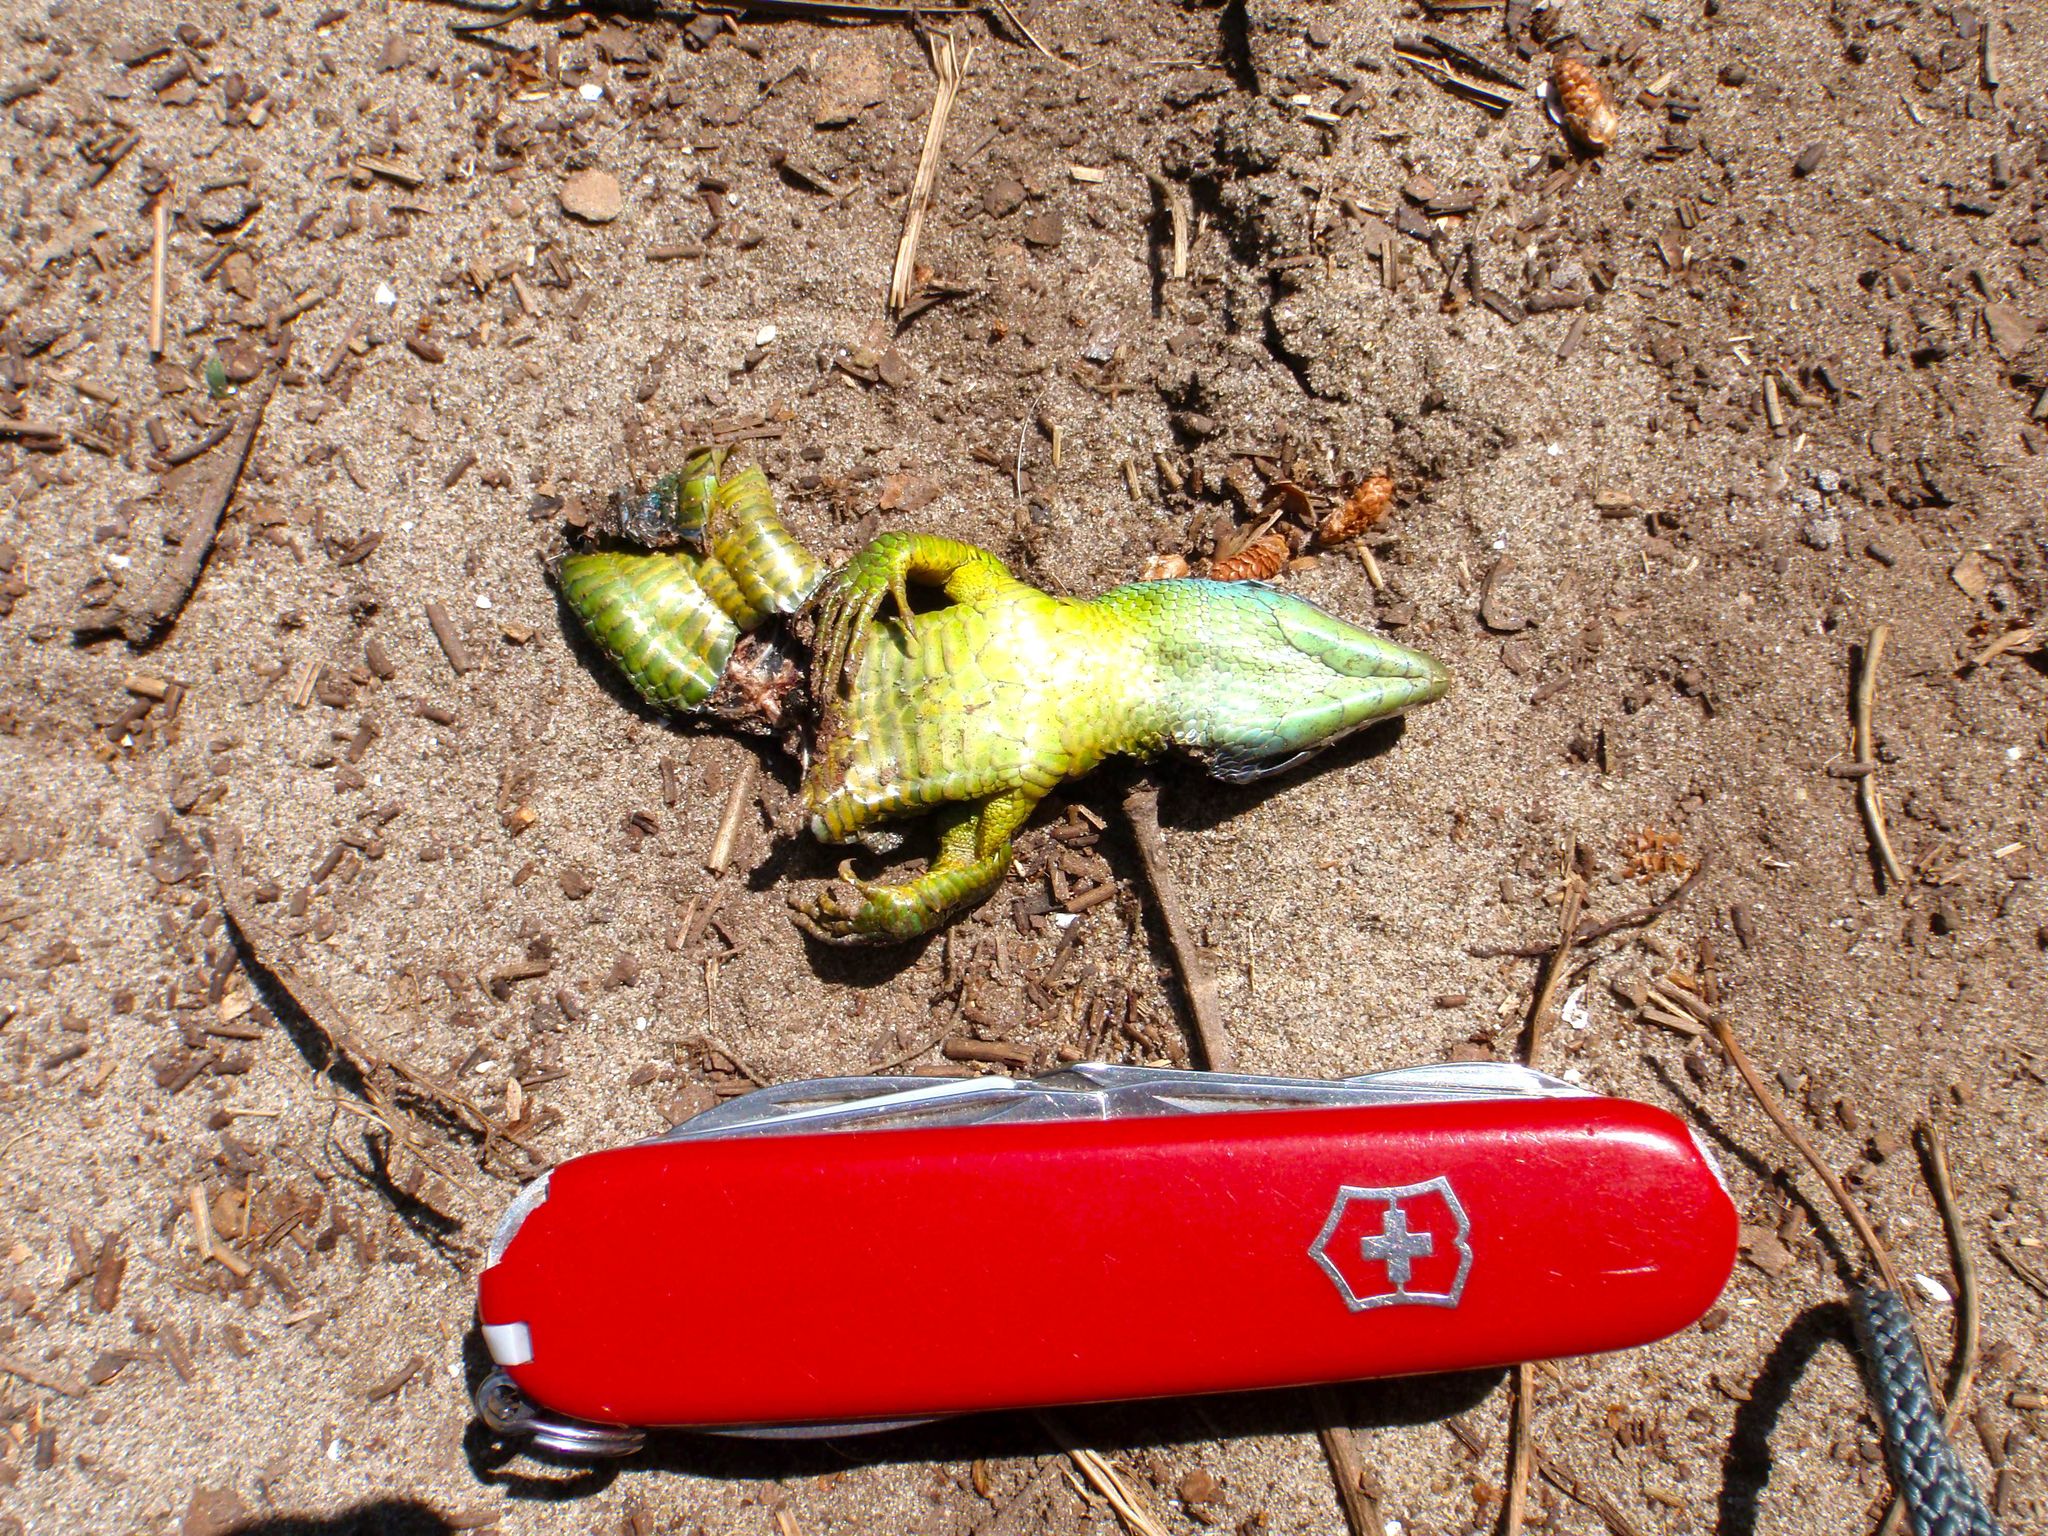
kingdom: Animalia
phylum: Chordata
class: Squamata
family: Lacertidae
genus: Lacerta
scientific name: Lacerta bilineata
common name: Western green lizard
